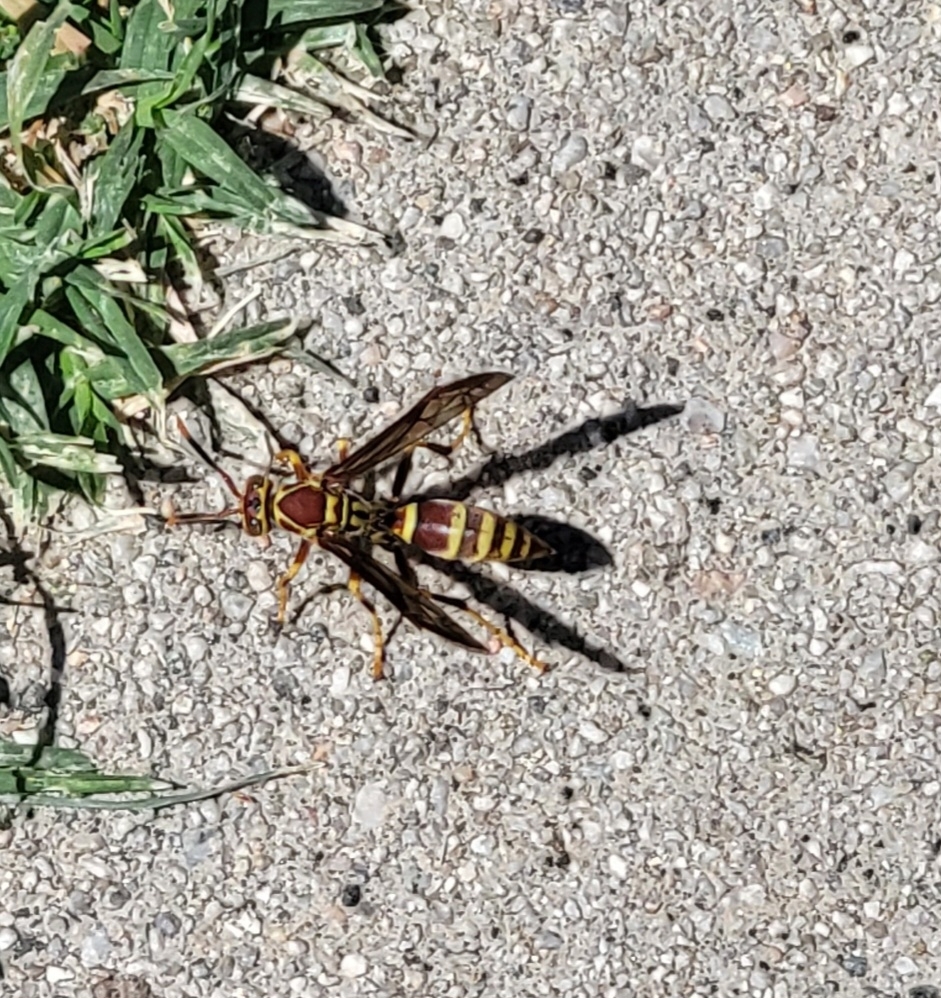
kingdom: Animalia
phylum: Arthropoda
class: Insecta
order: Hymenoptera
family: Eumenidae
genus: Polistes
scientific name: Polistes exclamans
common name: Paper wasp
